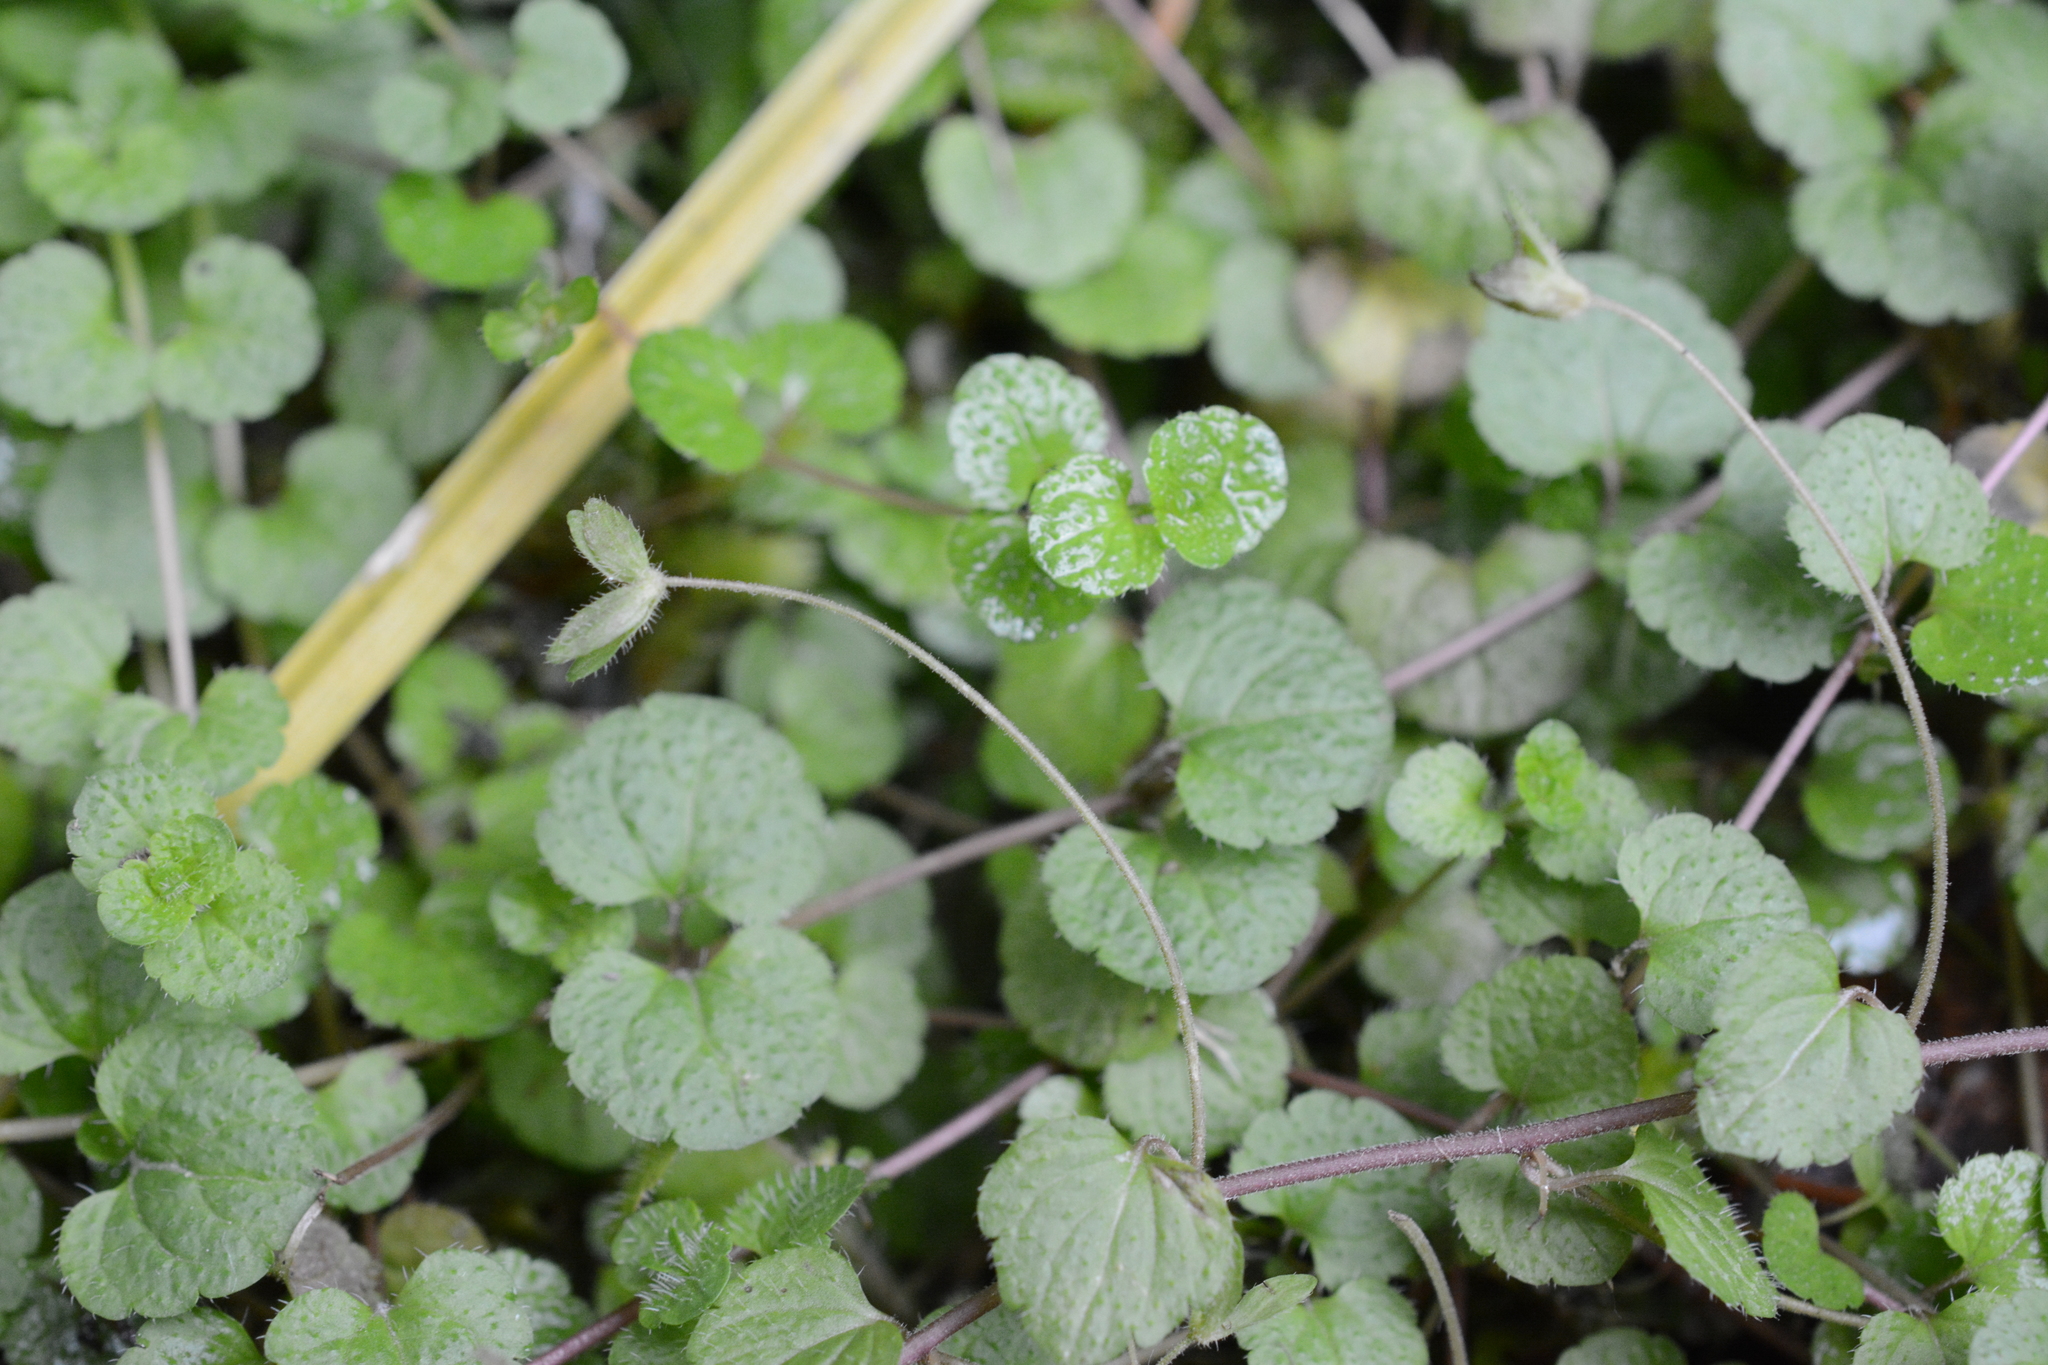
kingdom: Plantae
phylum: Tracheophyta
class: Magnoliopsida
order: Lamiales
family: Plantaginaceae
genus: Veronica
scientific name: Veronica filiformis
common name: Slender speedwell
